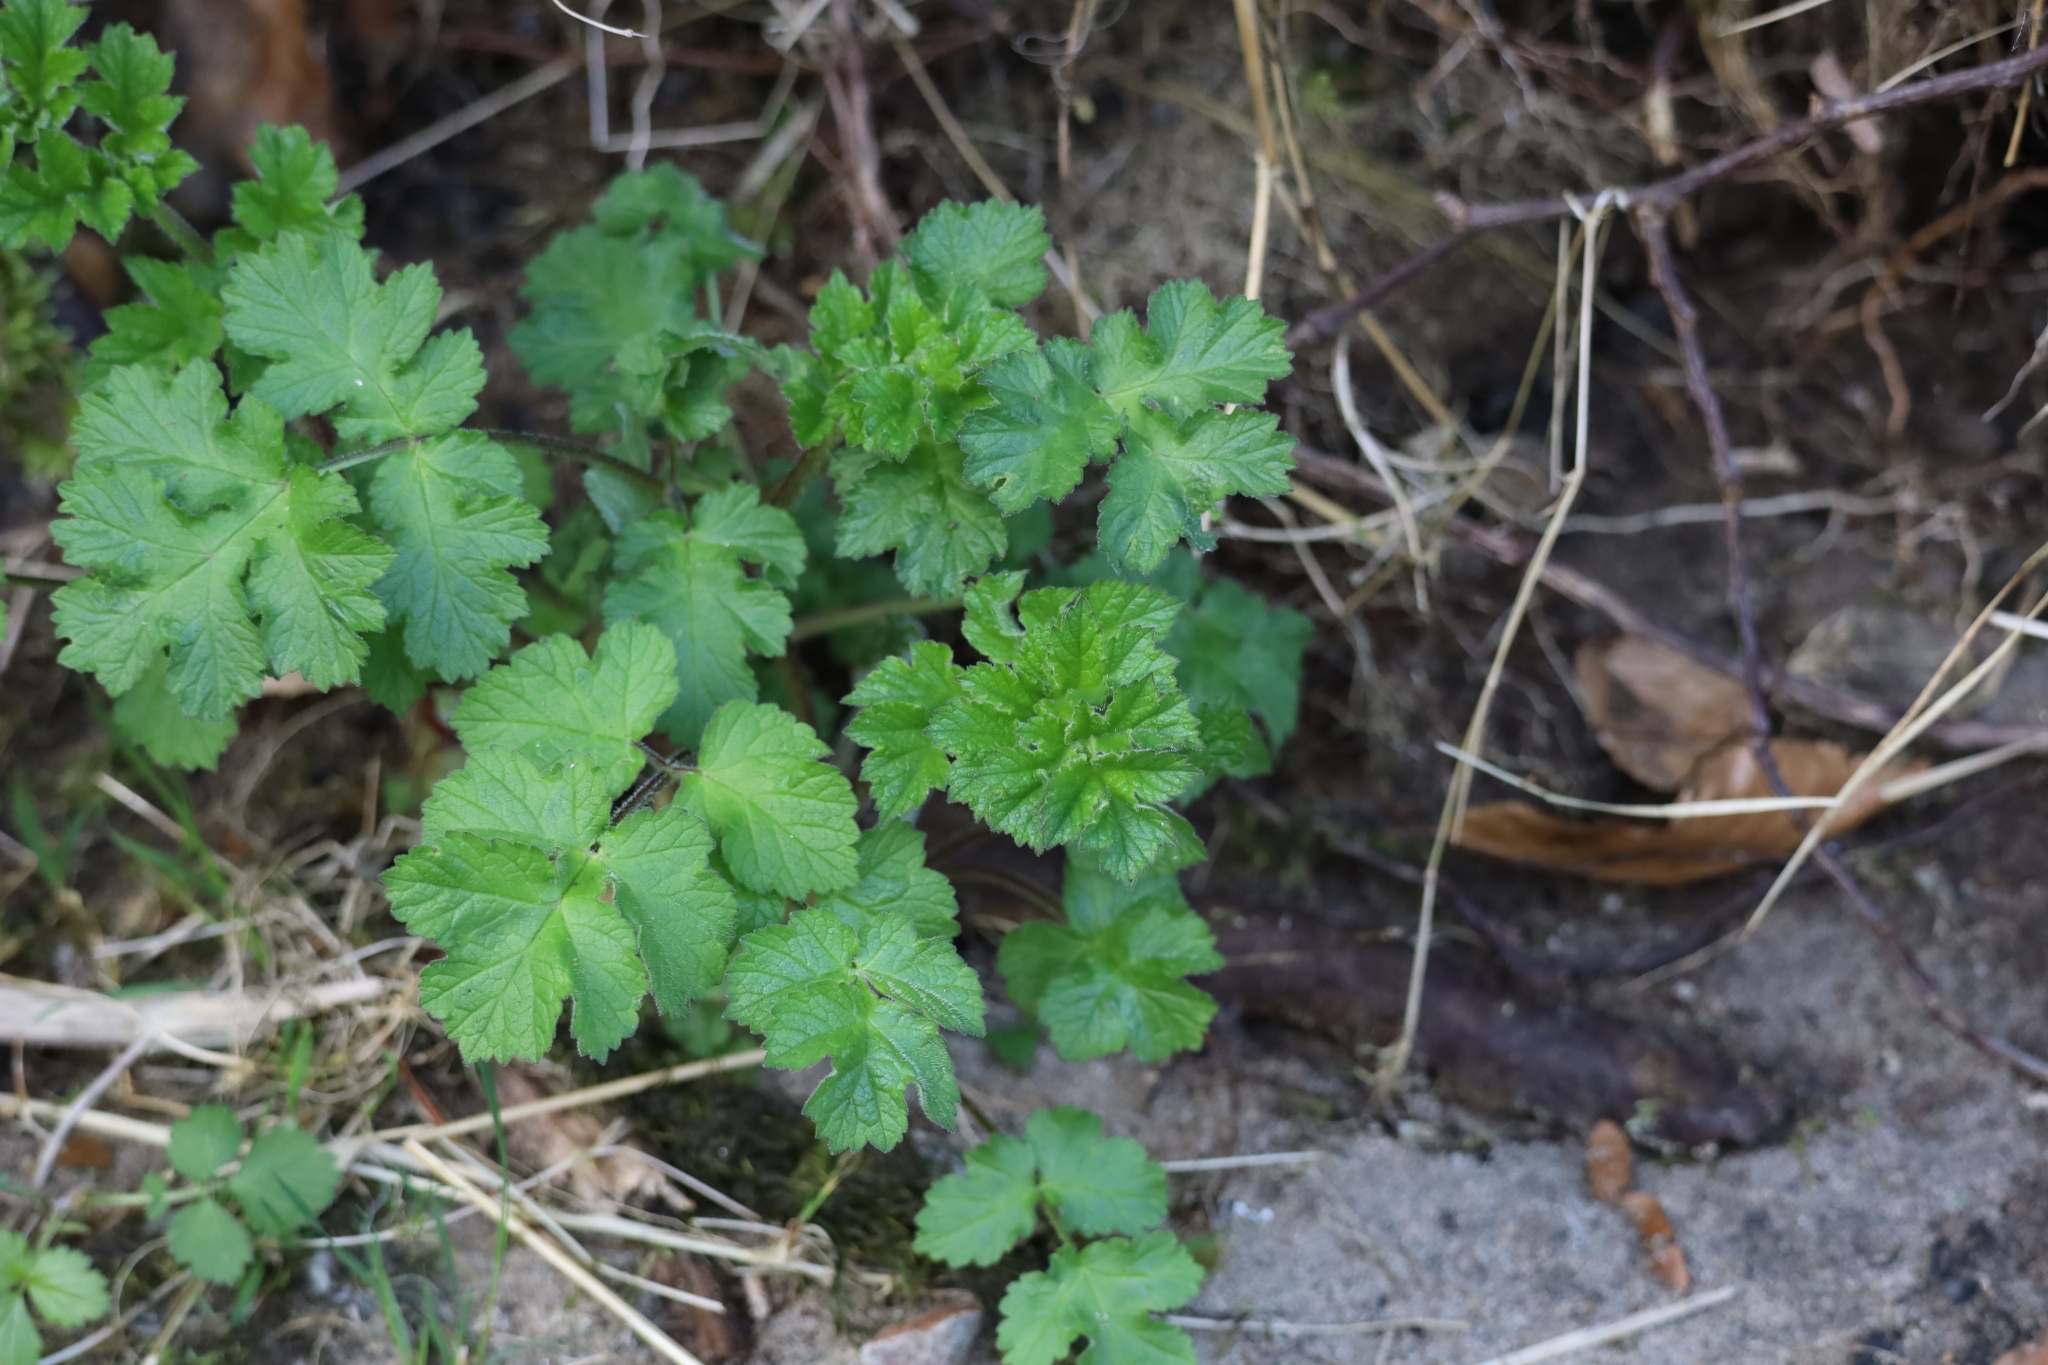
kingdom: Plantae
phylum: Tracheophyta
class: Magnoliopsida
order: Apiales
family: Apiaceae
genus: Heracleum
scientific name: Heracleum sphondylium
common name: Hogweed
